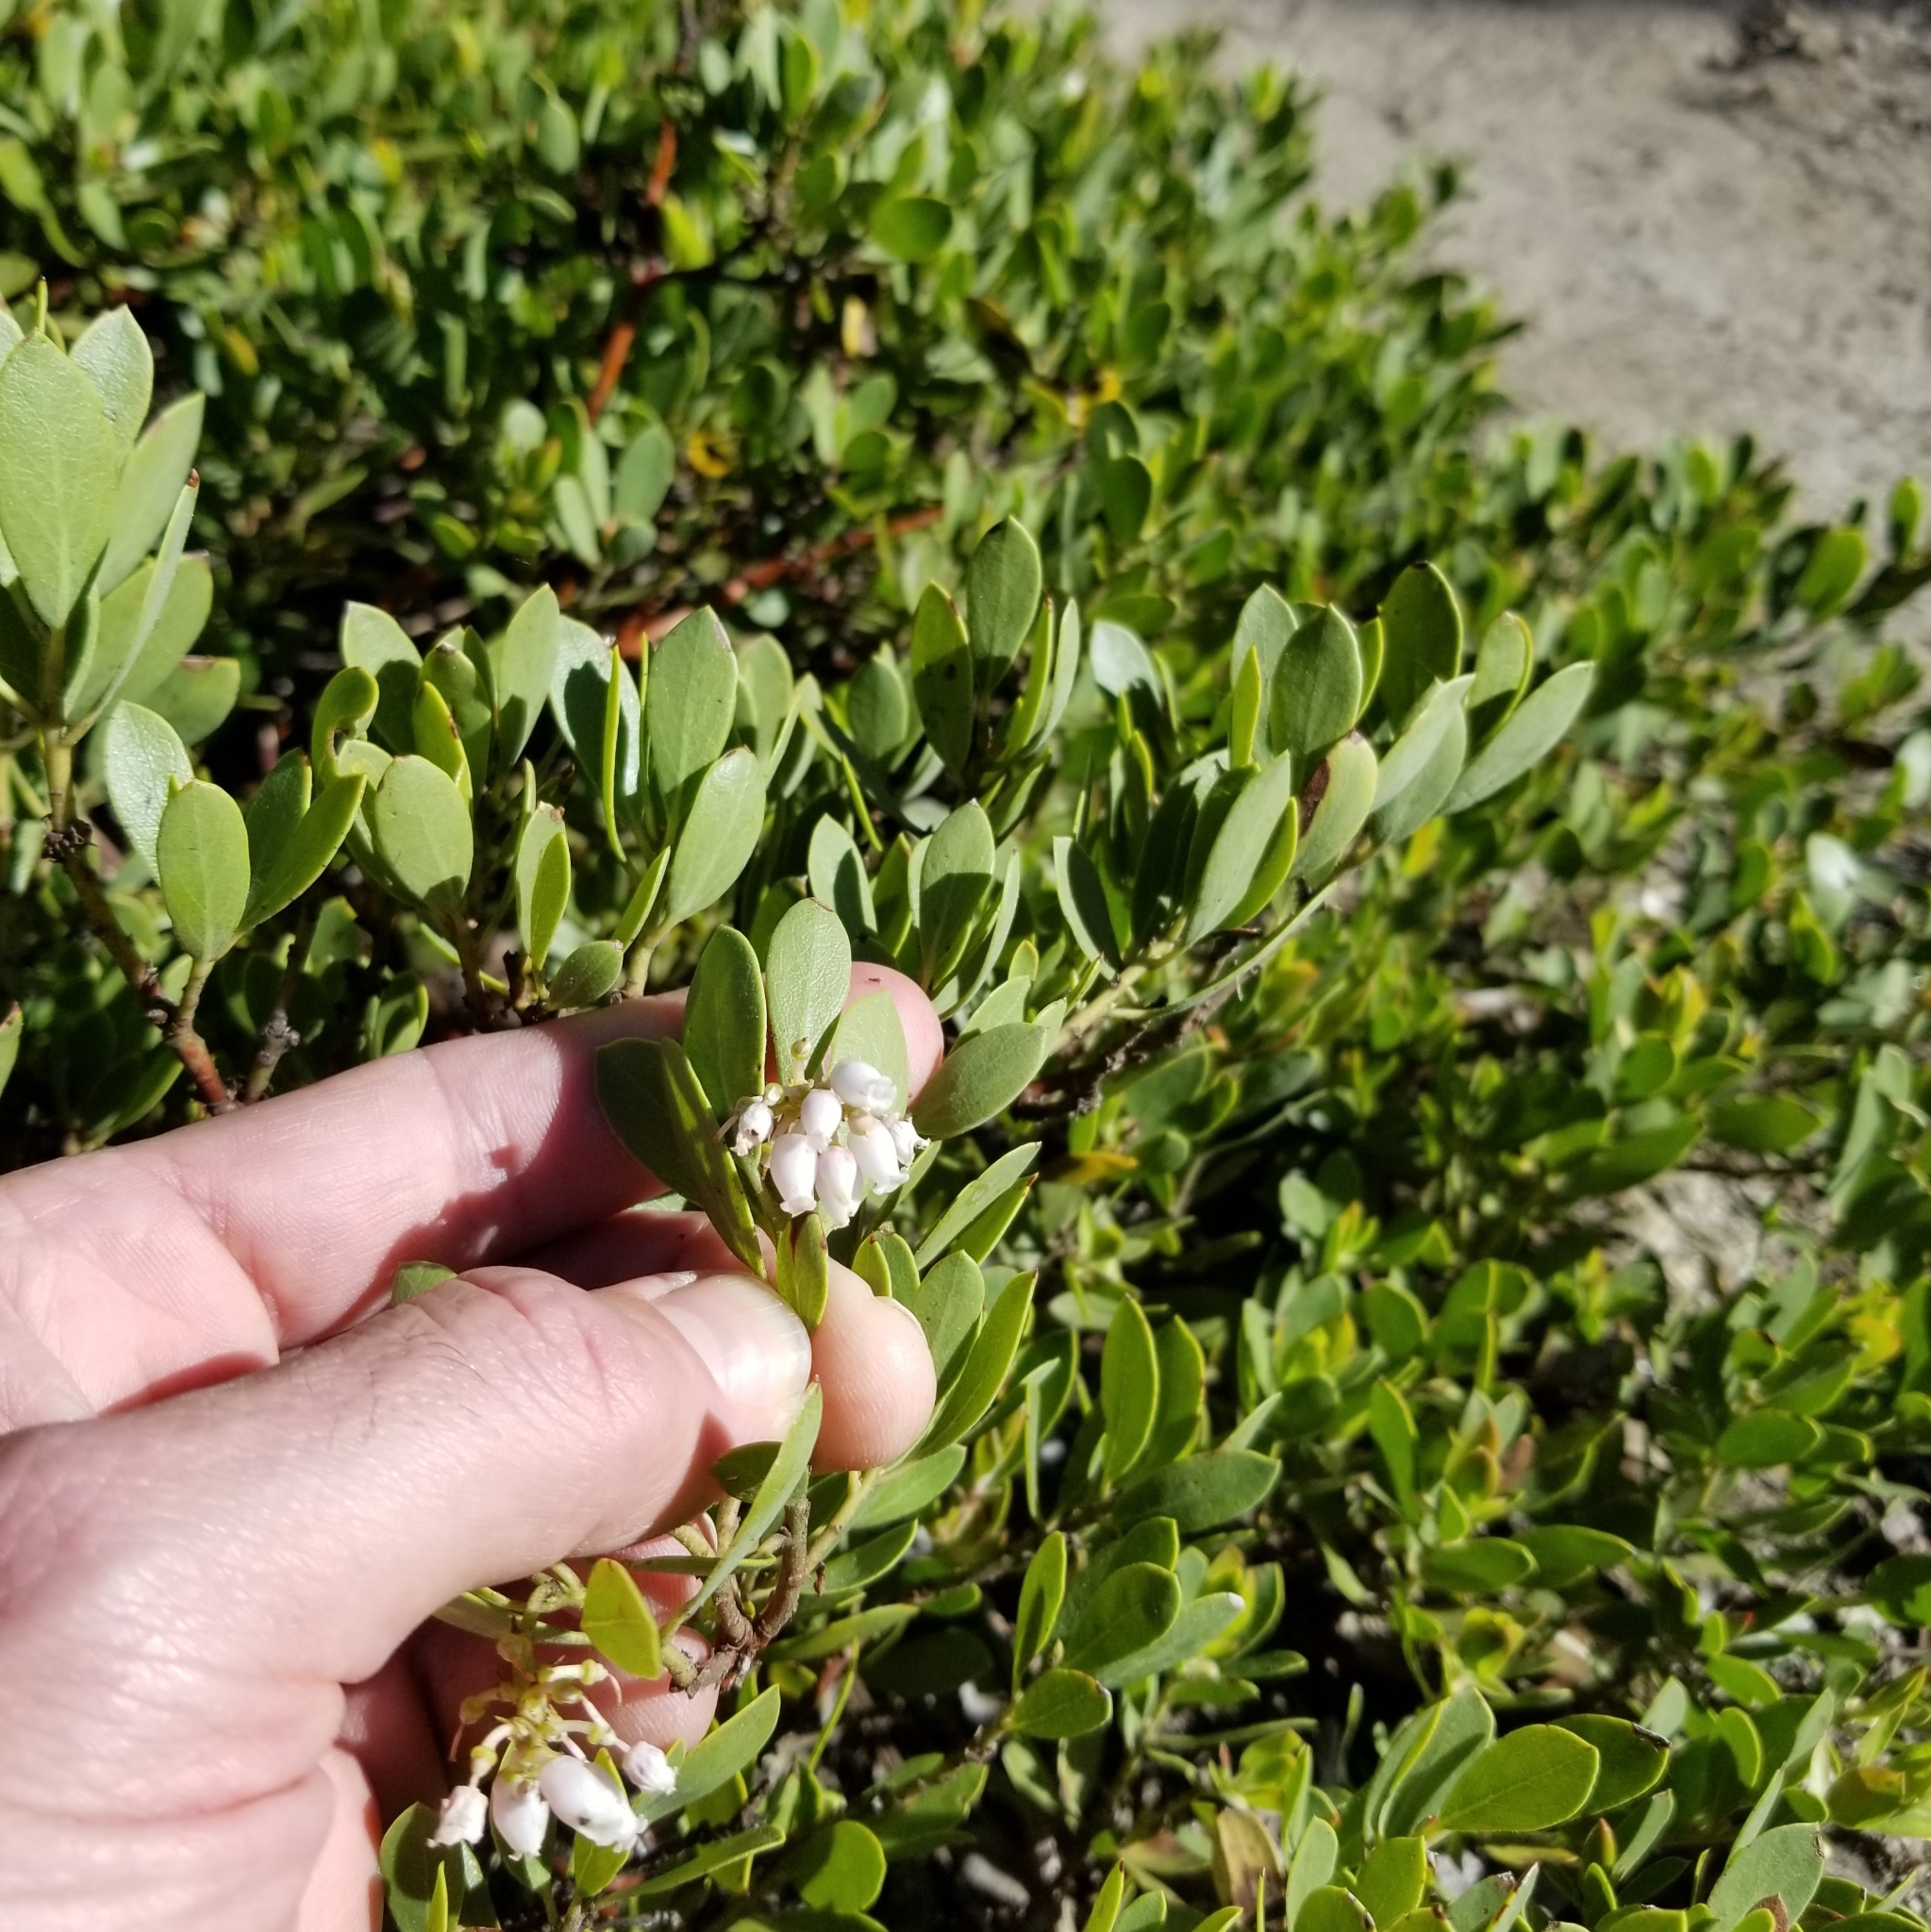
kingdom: Plantae
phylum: Tracheophyta
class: Magnoliopsida
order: Ericales
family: Ericaceae
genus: Arctostaphylos
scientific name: Arctostaphylos nevadensis
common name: Pinemat manzanita
